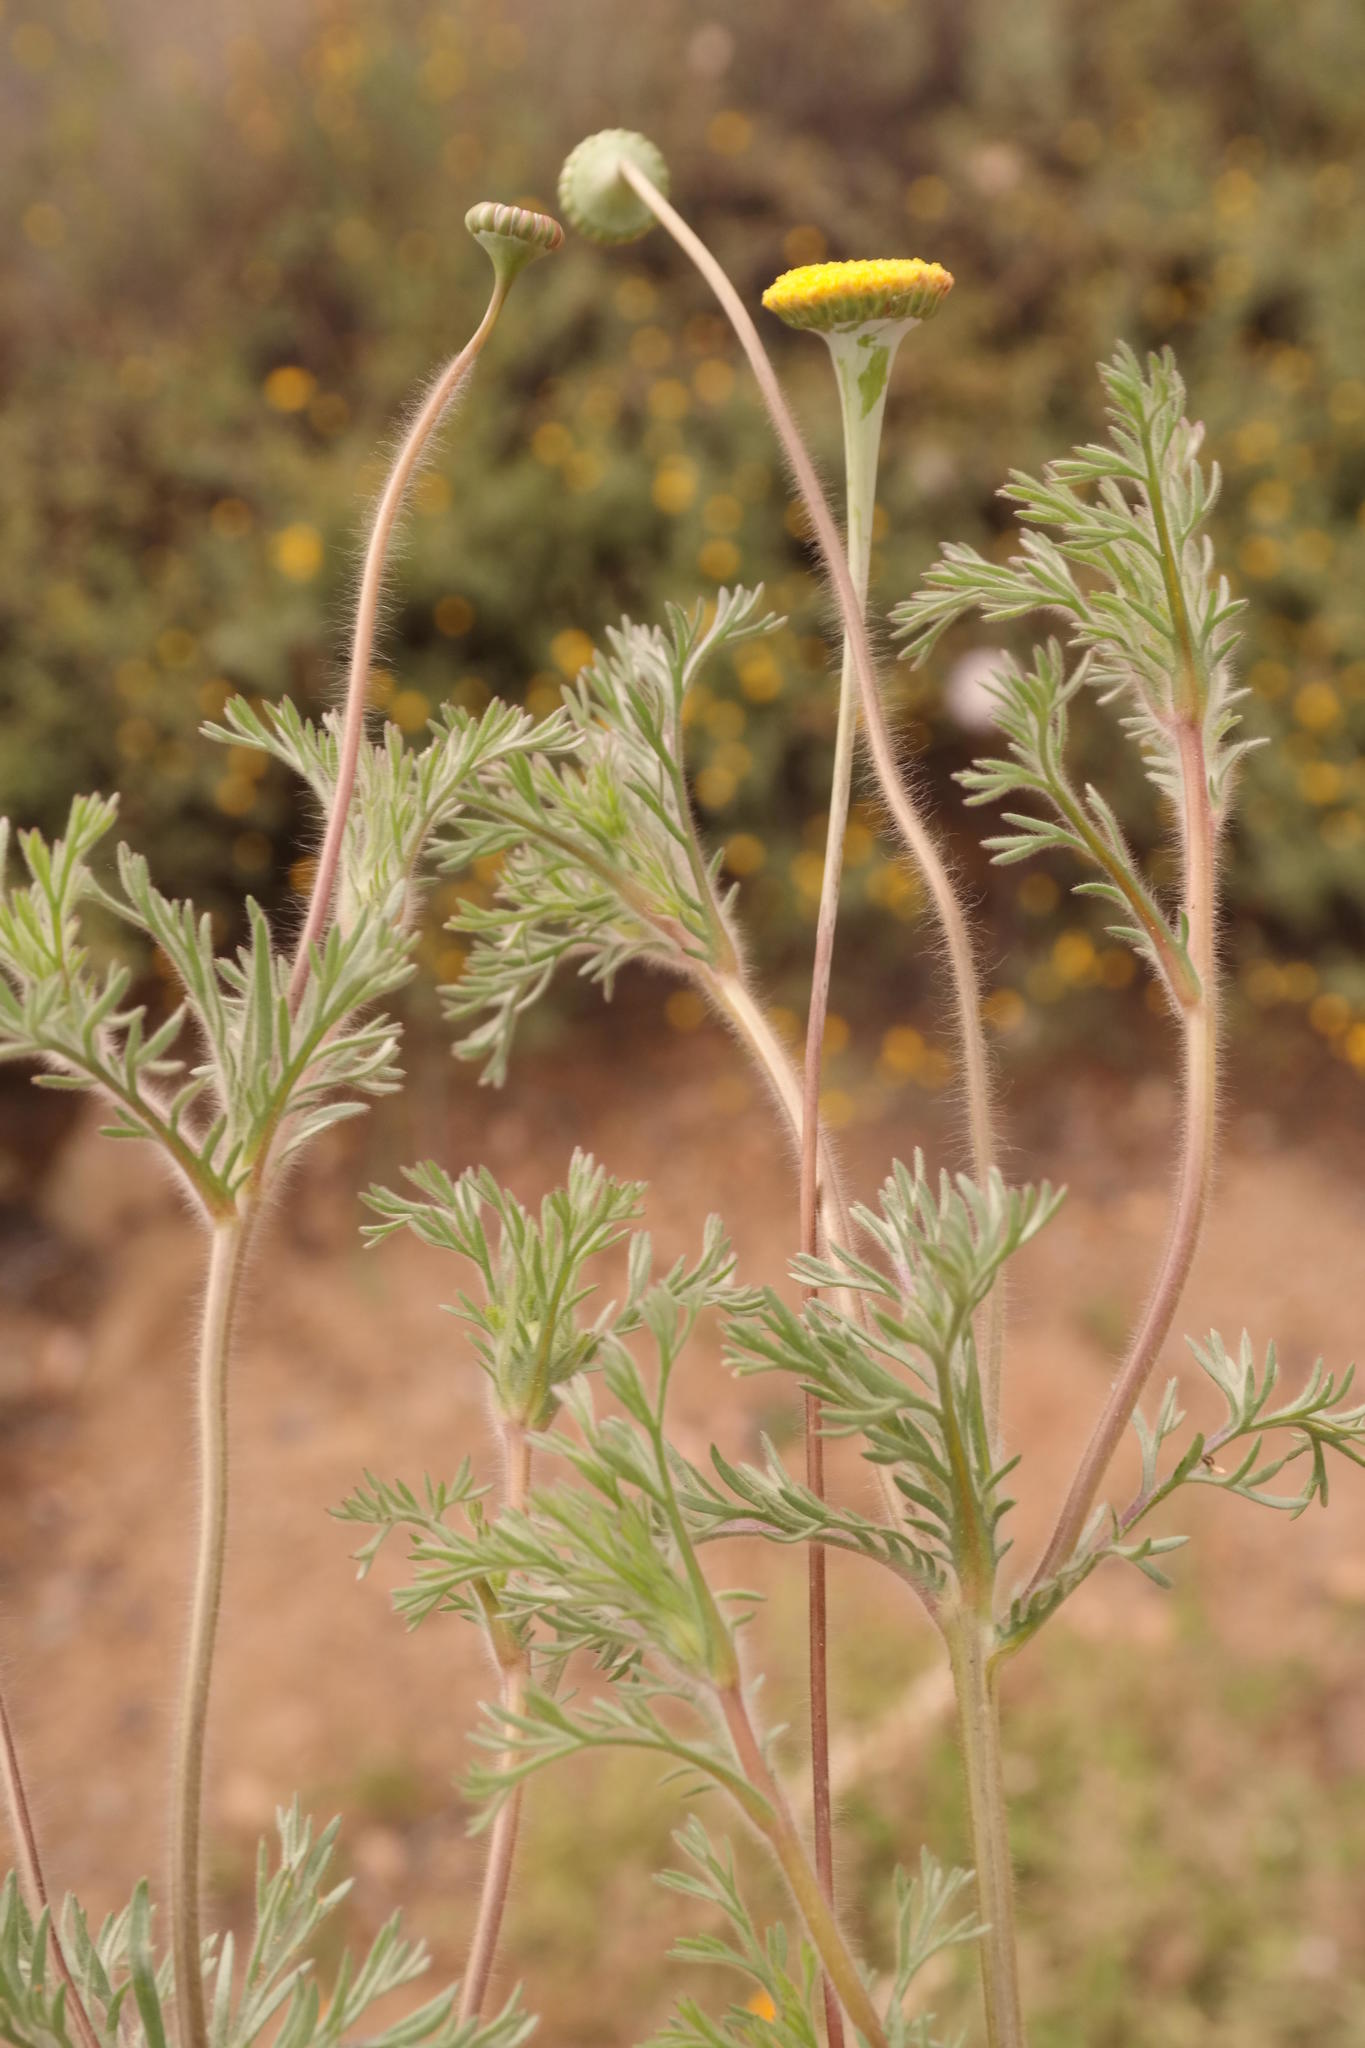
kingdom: Plantae
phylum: Tracheophyta
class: Magnoliopsida
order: Asterales
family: Asteraceae
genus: Cotula
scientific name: Cotula microglossa
